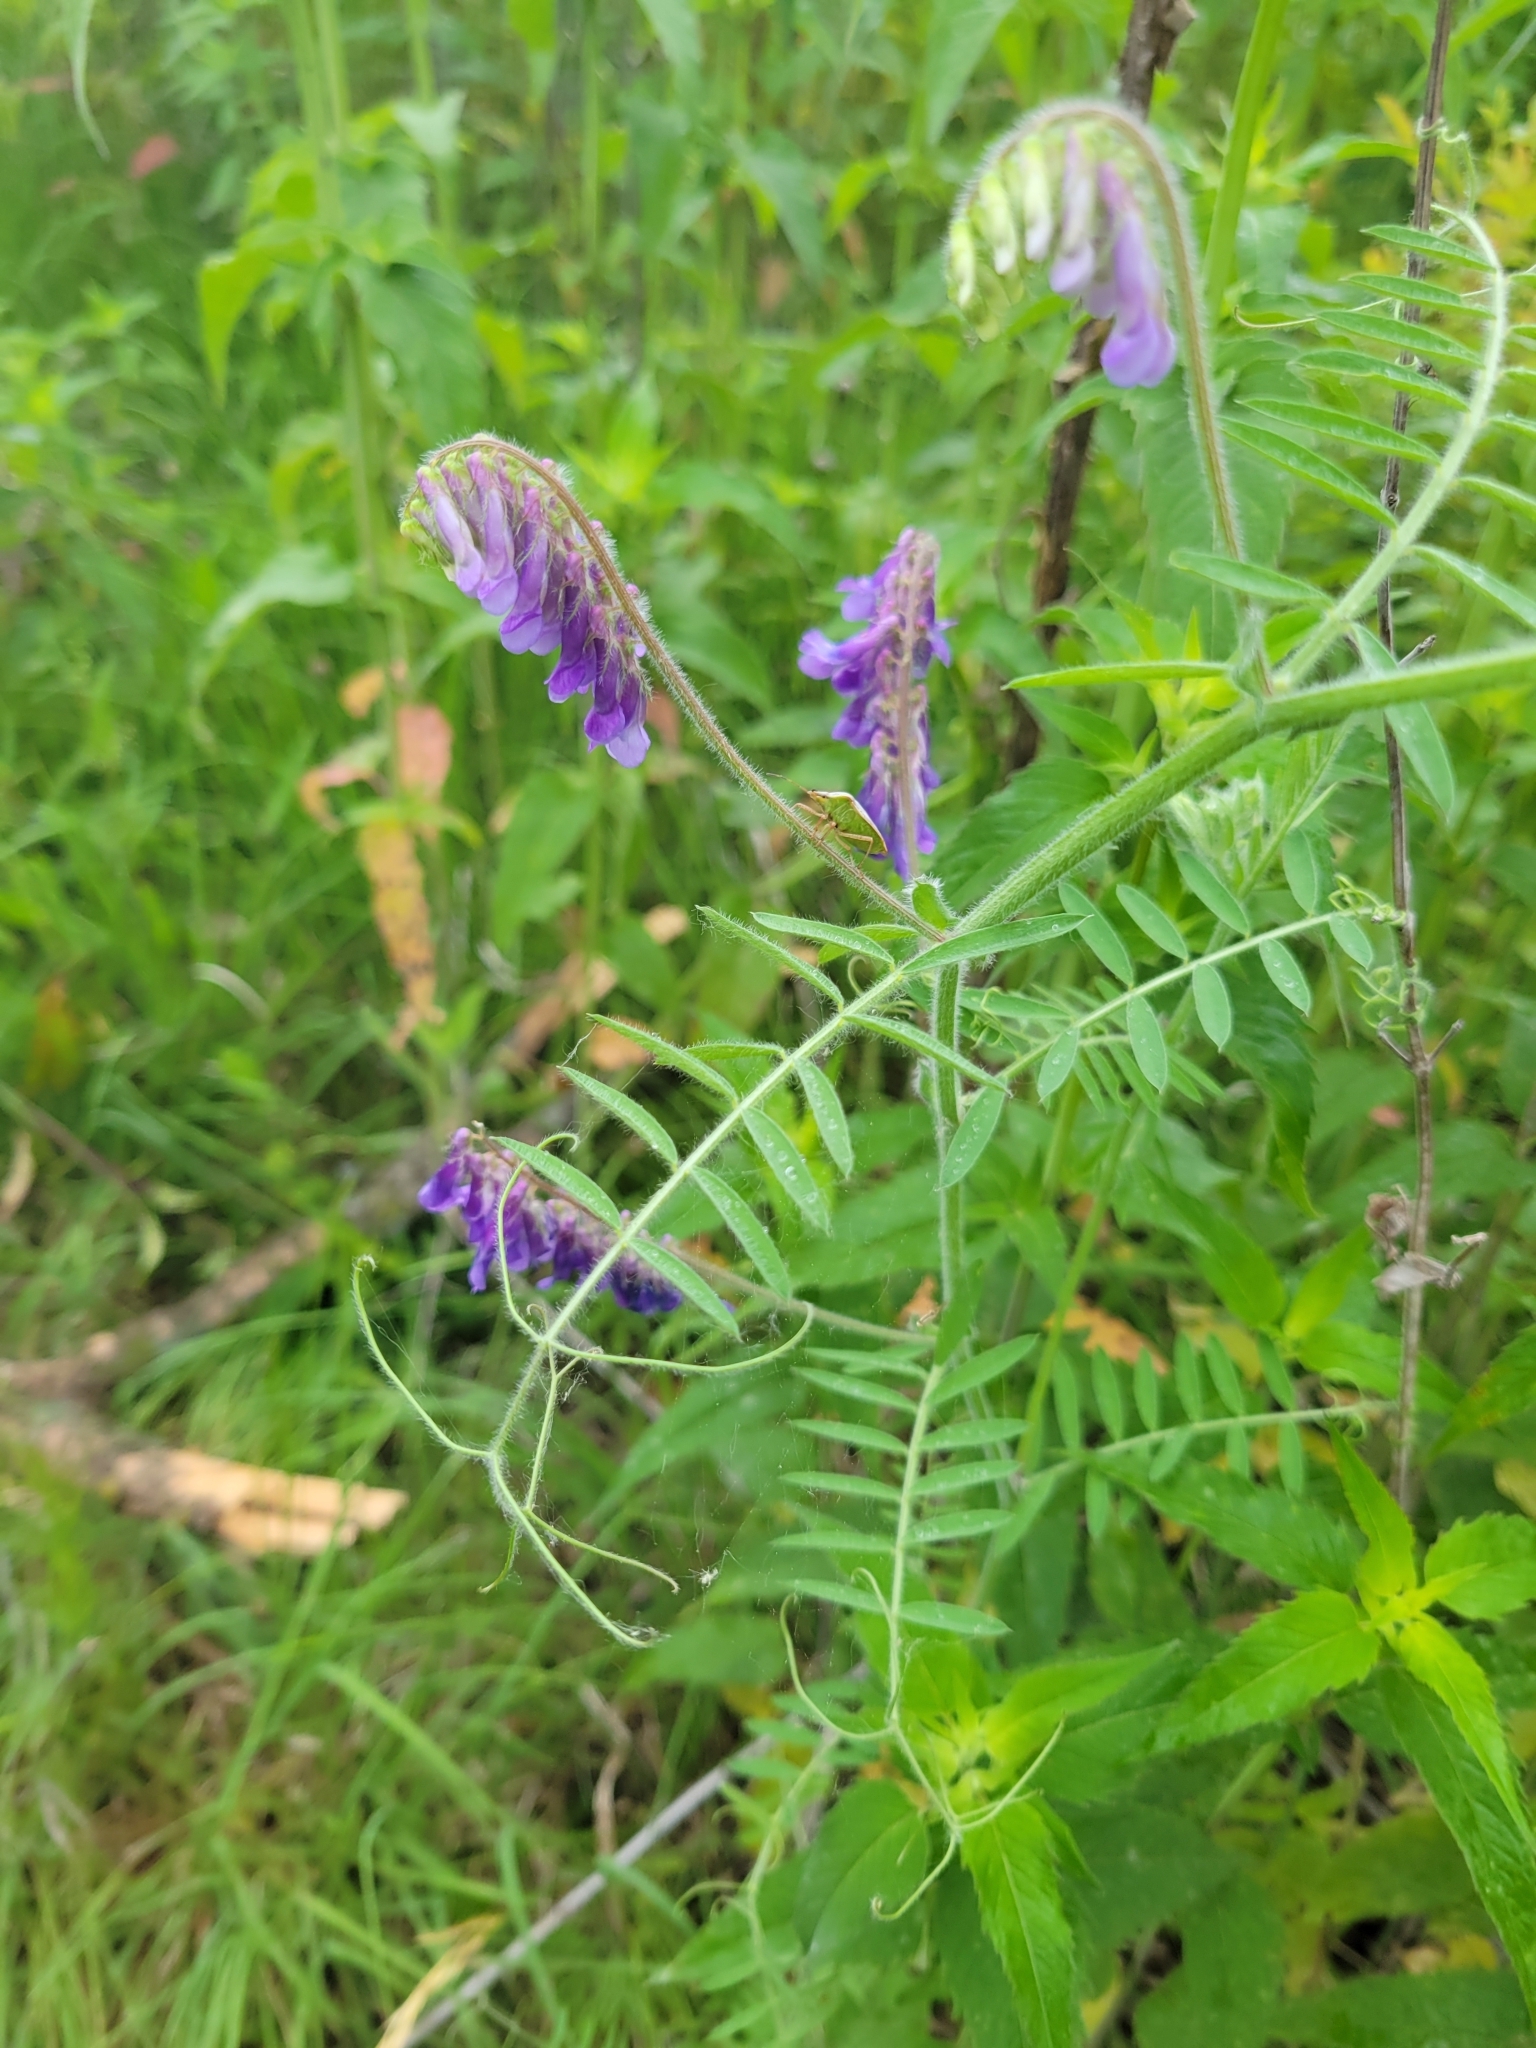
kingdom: Plantae
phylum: Tracheophyta
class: Magnoliopsida
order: Fabales
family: Fabaceae
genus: Vicia
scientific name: Vicia villosa
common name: Fodder vetch
